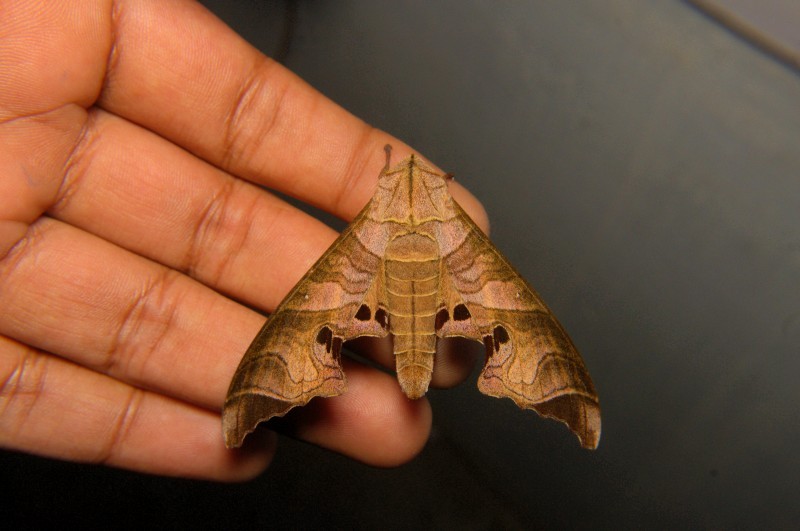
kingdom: Animalia
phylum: Arthropoda
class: Insecta
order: Lepidoptera
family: Sphingidae
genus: Marumba
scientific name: Marumba spectabilis
